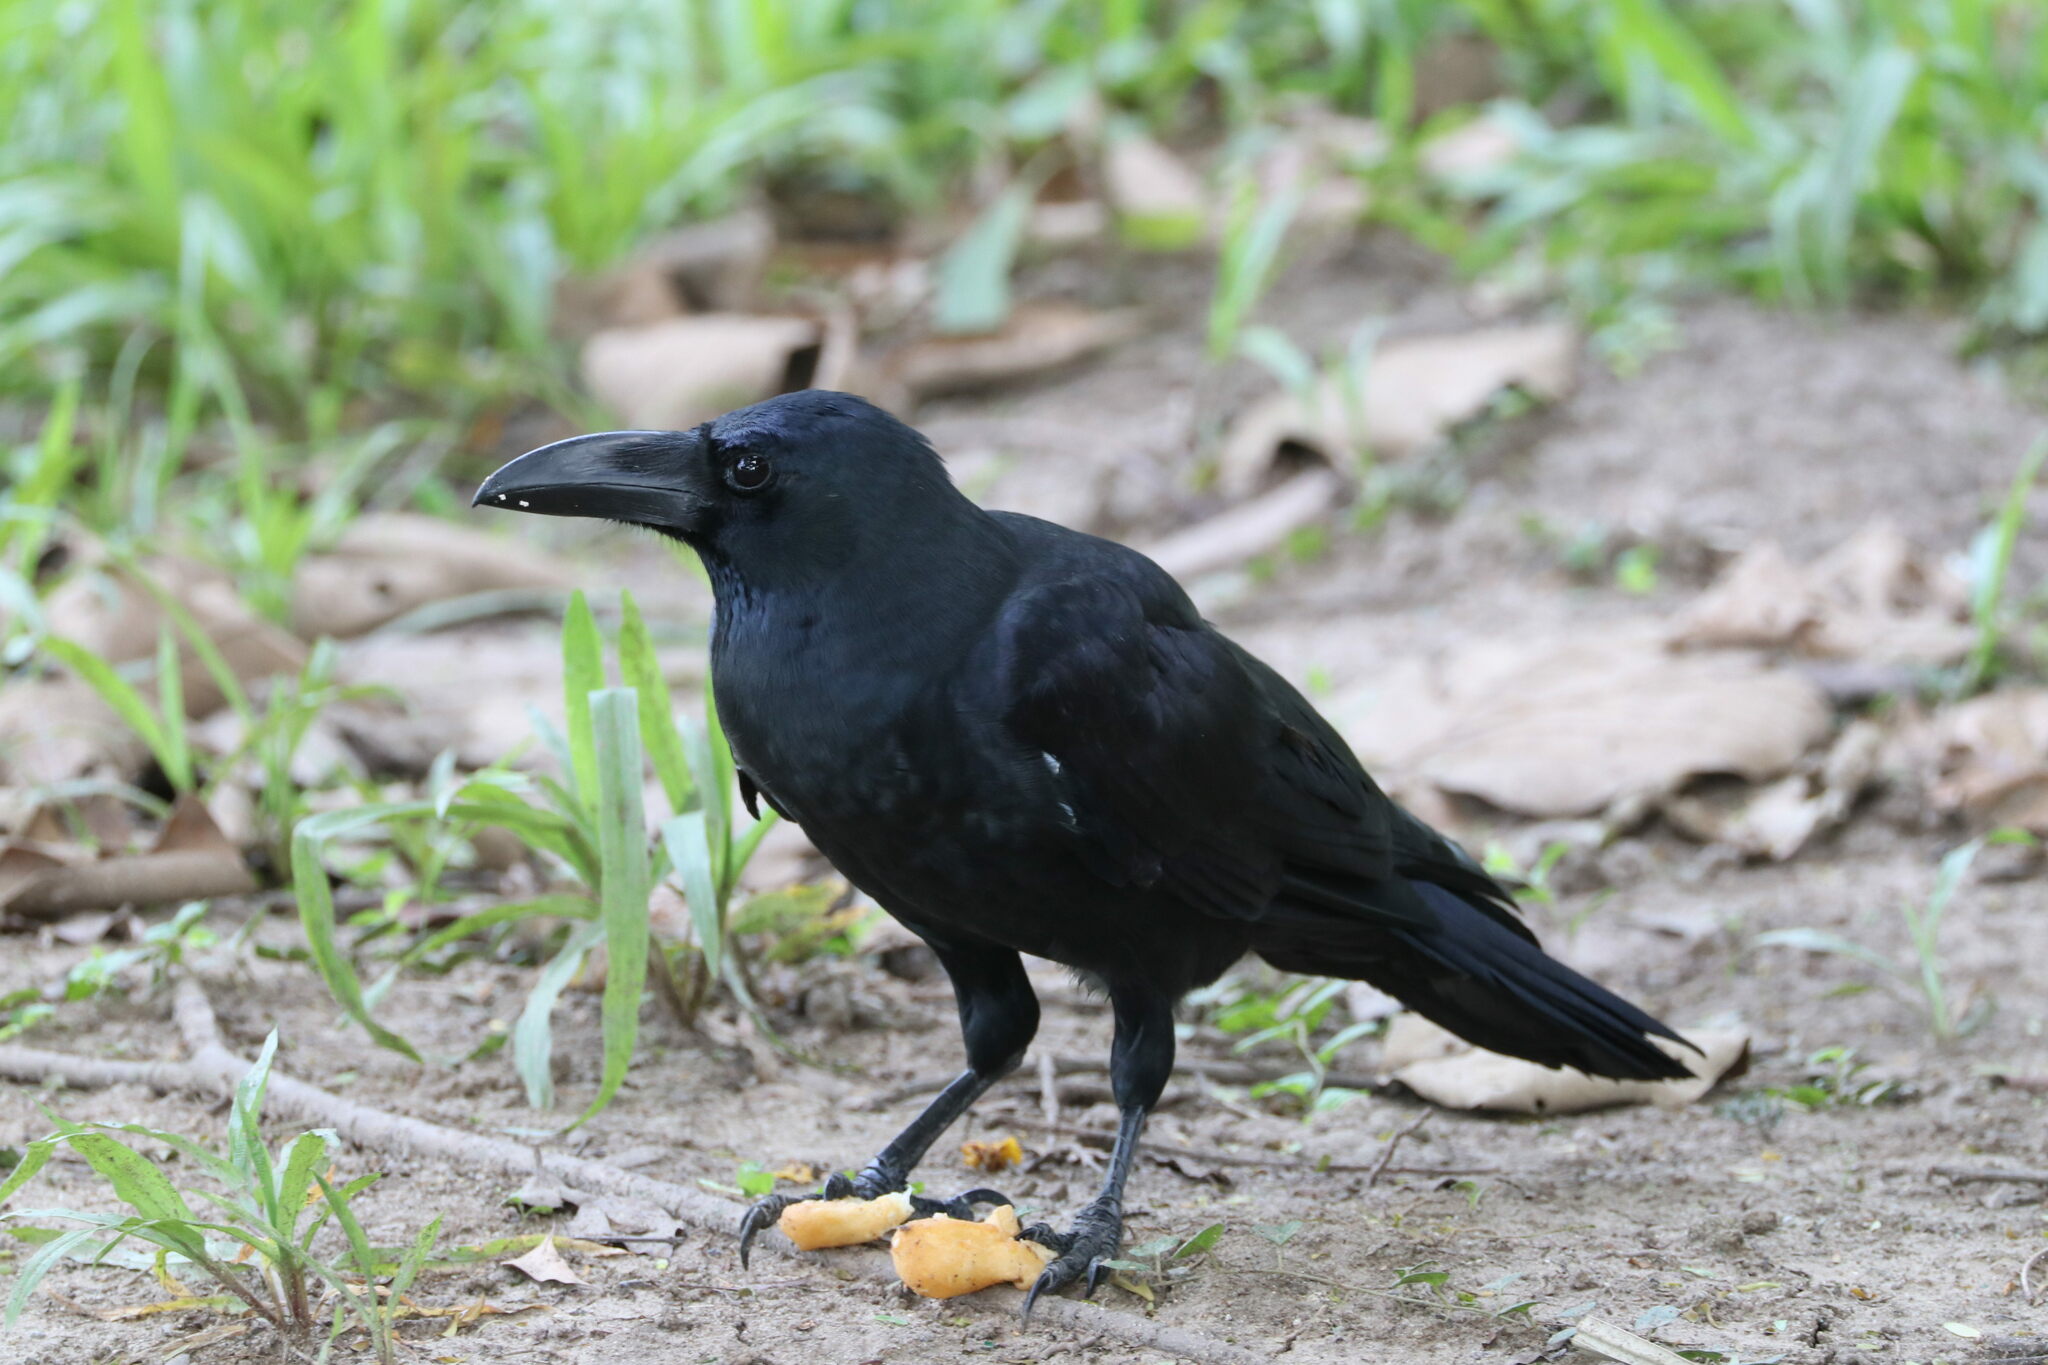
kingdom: Animalia
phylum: Chordata
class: Aves
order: Passeriformes
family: Corvidae
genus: Corvus
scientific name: Corvus macrorhynchos
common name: Large-billed crow
